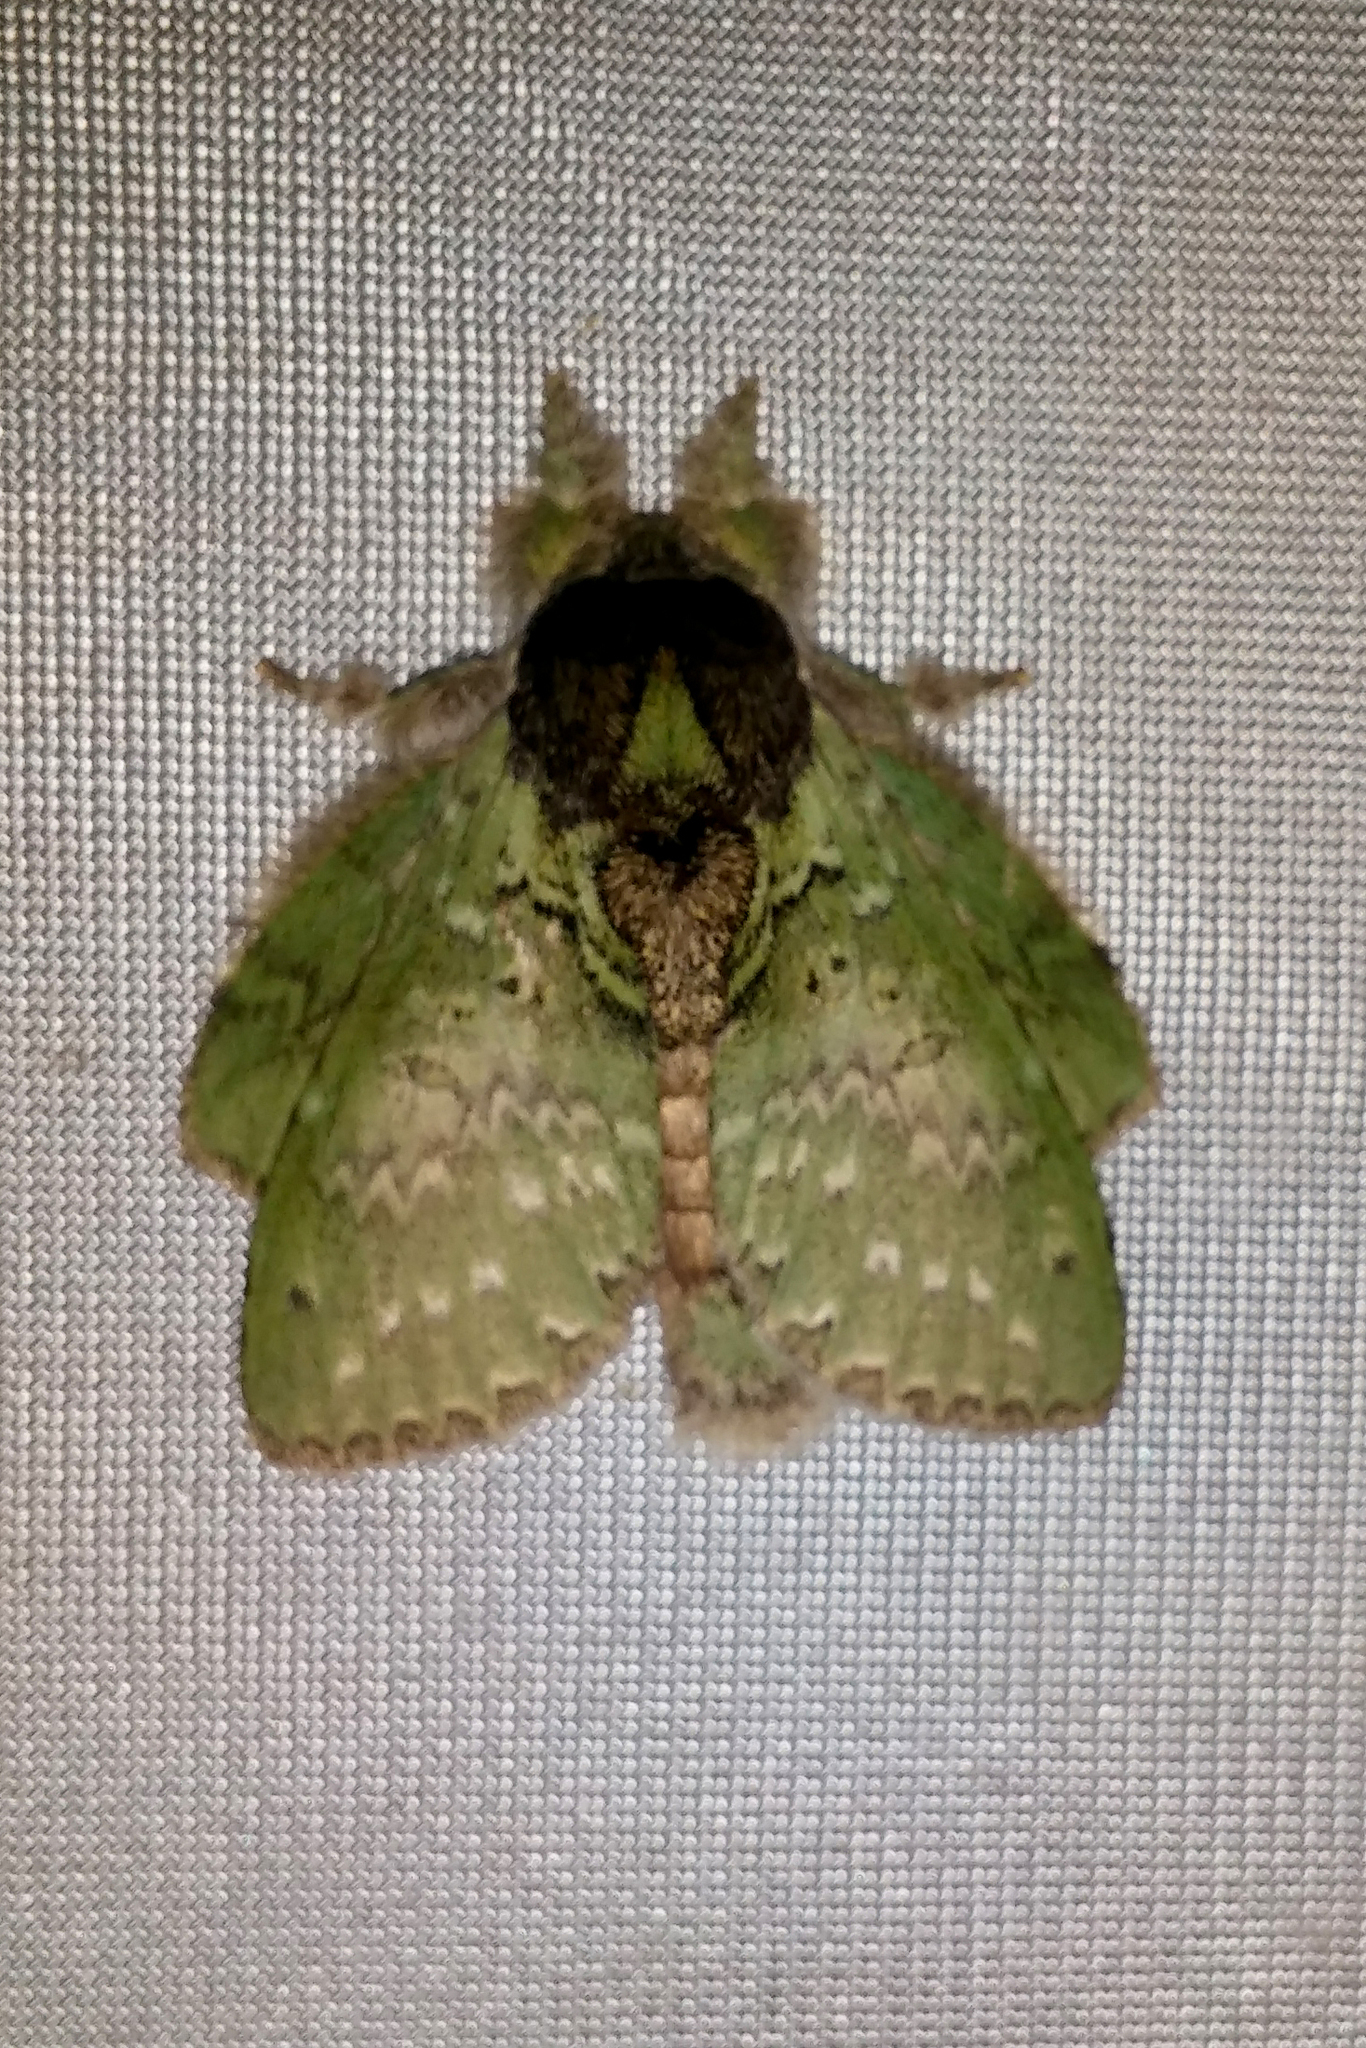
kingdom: Animalia
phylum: Arthropoda
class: Insecta
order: Lepidoptera
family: Notodontidae
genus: Stauropus
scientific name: Stauropus viridissimus
